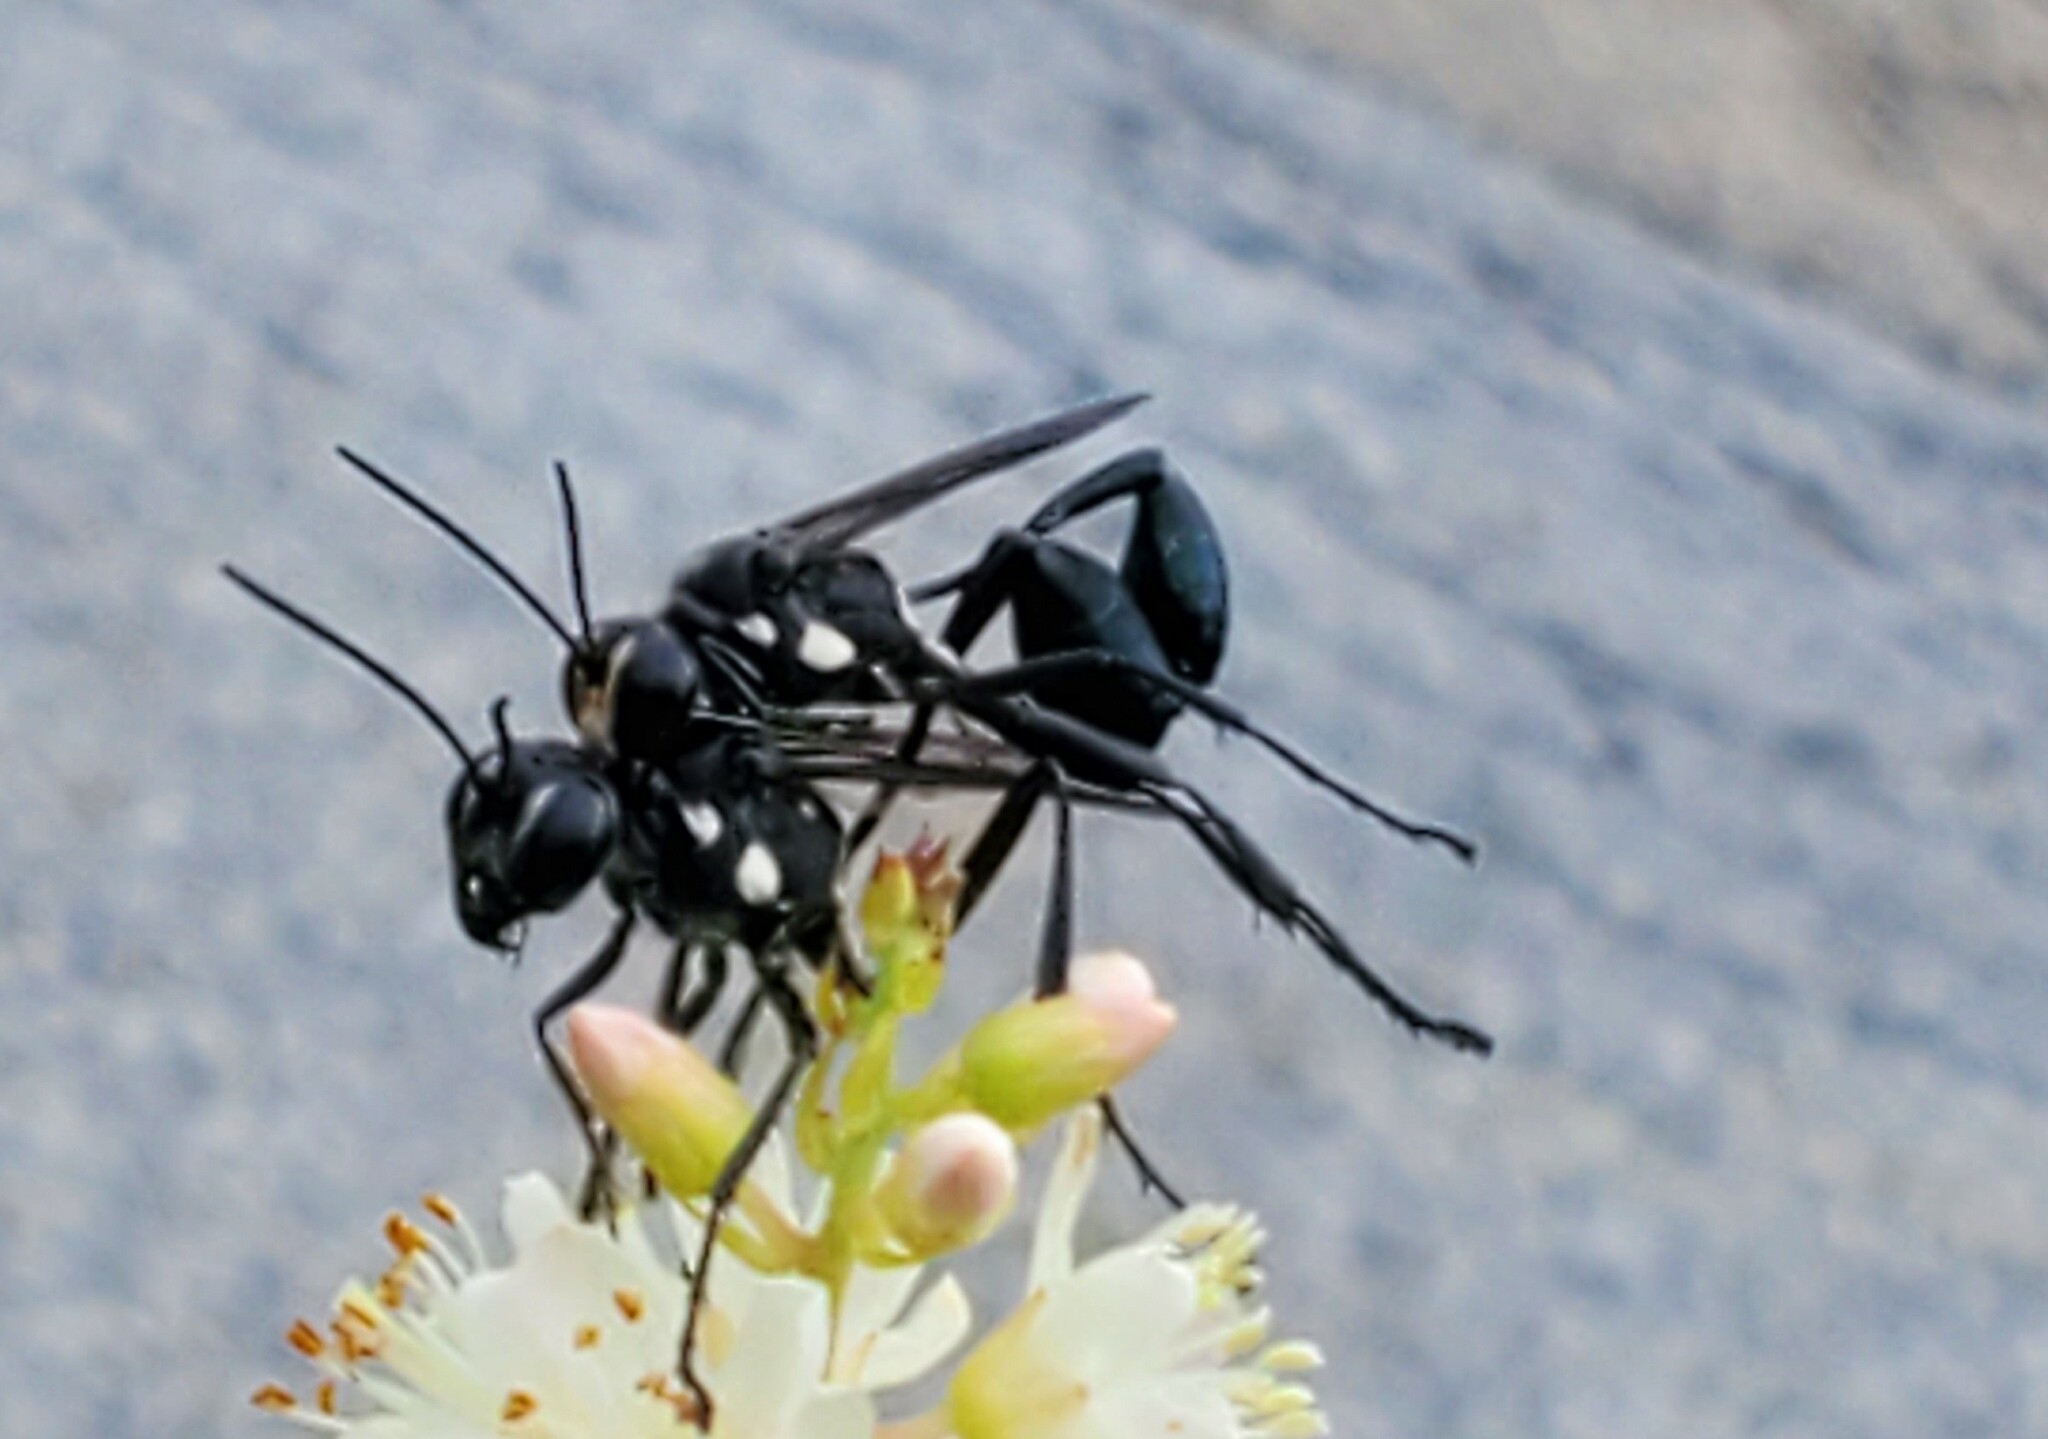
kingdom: Animalia
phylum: Arthropoda
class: Insecta
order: Hymenoptera
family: Sphecidae
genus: Eremnophila
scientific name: Eremnophila aureonotata
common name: Gold-marked thread-waisted wasp
